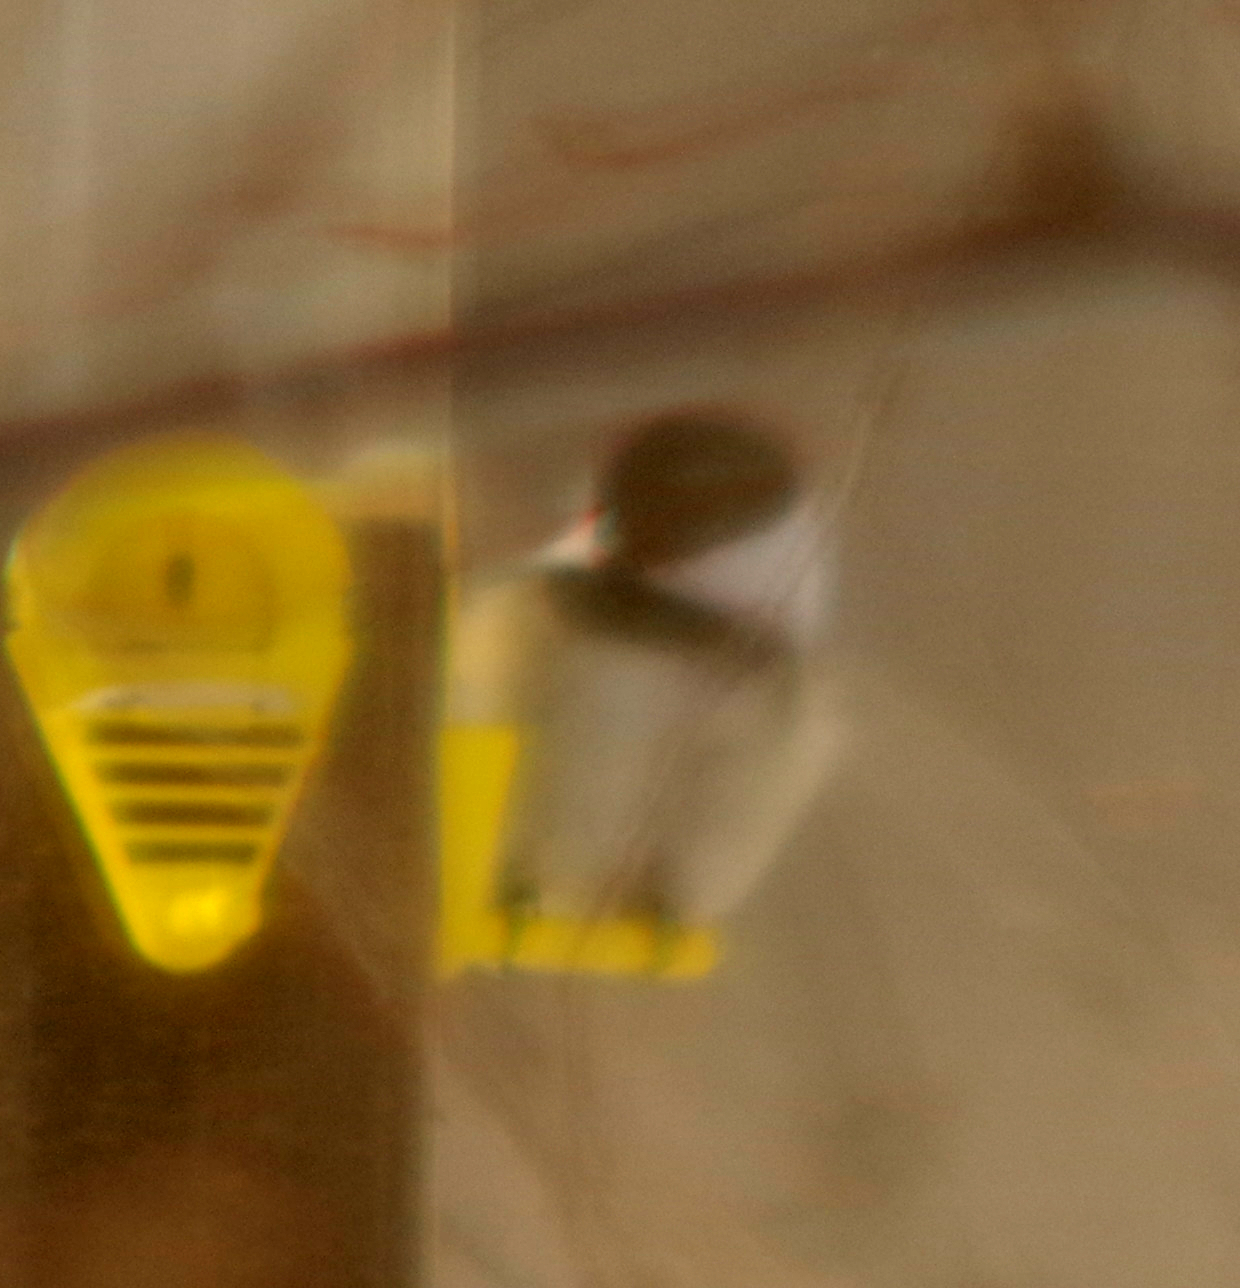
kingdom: Animalia
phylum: Chordata
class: Aves
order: Passeriformes
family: Paridae
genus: Poecile
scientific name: Poecile atricapillus
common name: Black-capped chickadee
